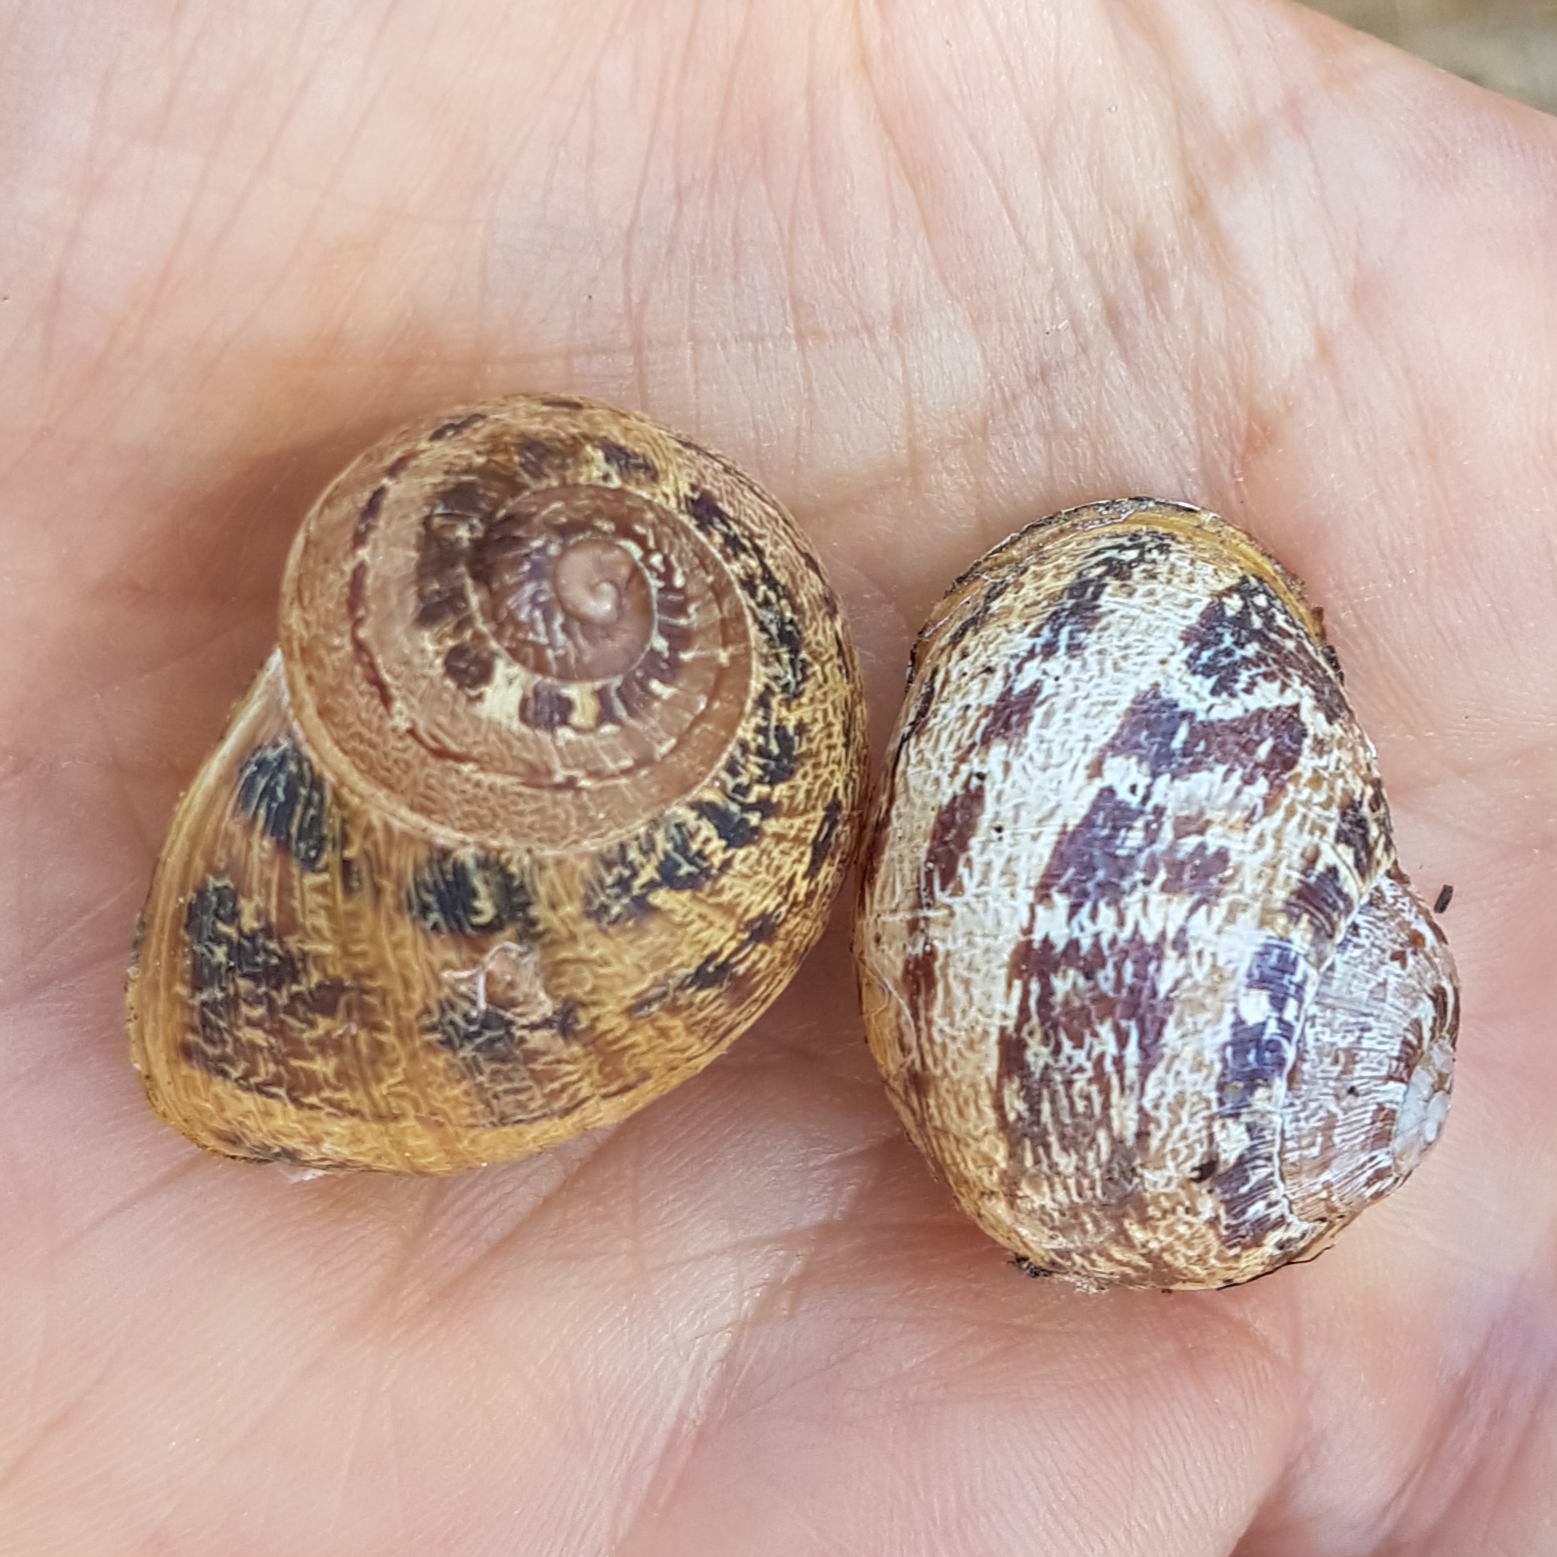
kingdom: Animalia
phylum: Mollusca
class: Gastropoda
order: Stylommatophora
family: Helicidae
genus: Cornu
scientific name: Cornu aspersum
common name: Brown garden snail
